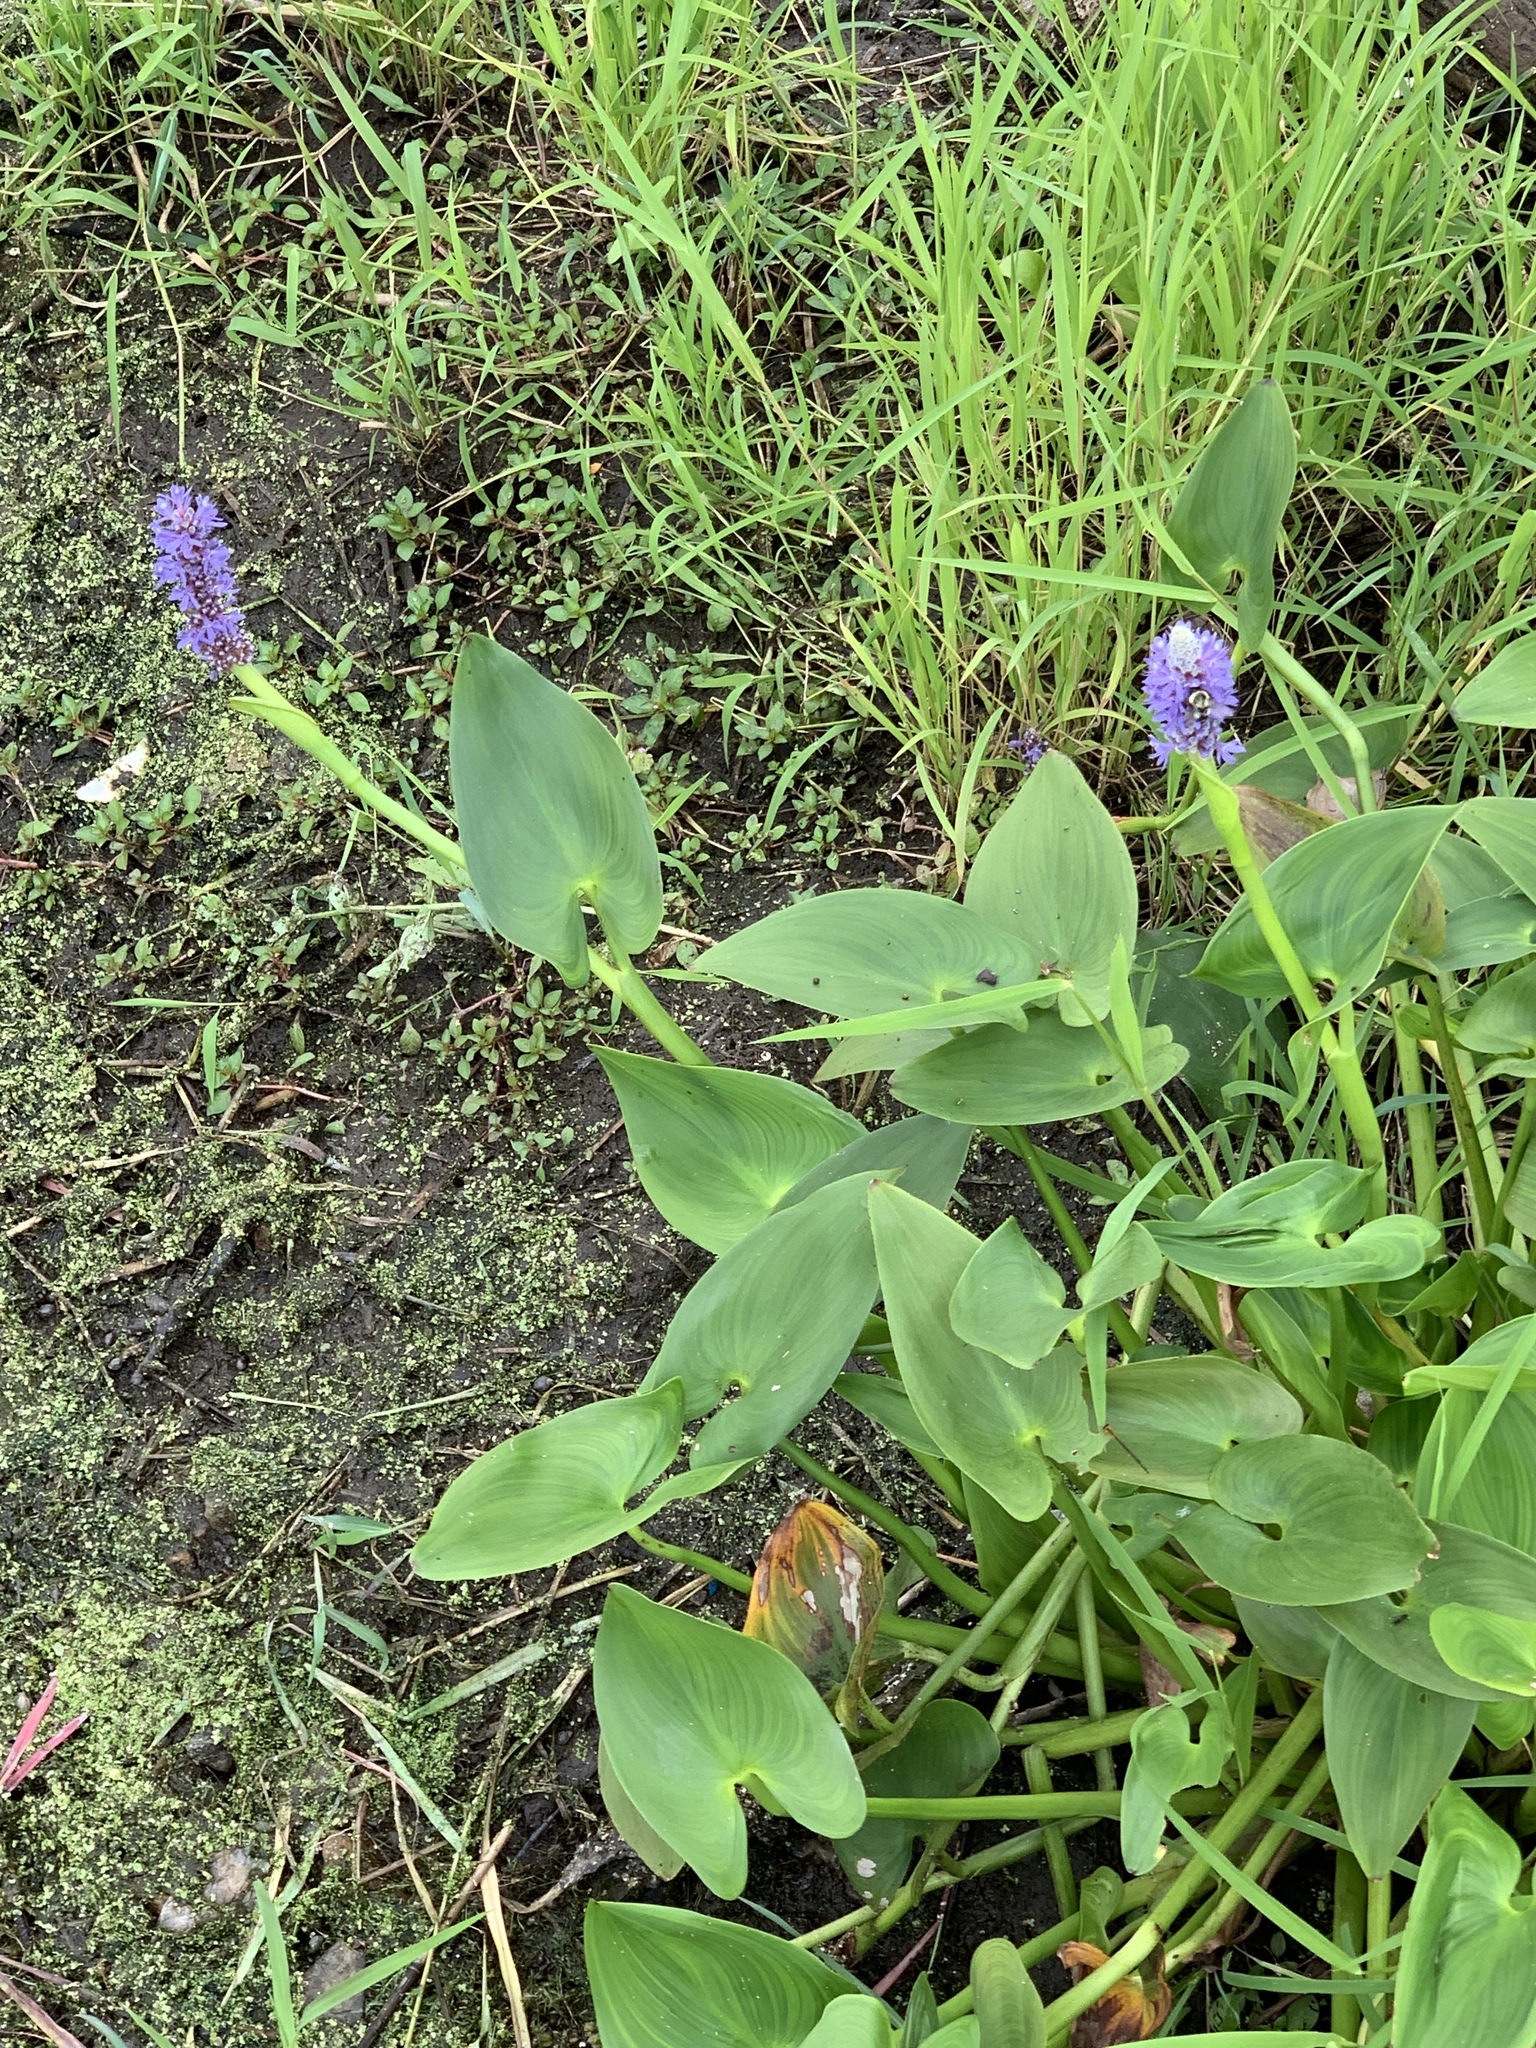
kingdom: Plantae
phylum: Tracheophyta
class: Liliopsida
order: Commelinales
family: Pontederiaceae
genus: Pontederia
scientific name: Pontederia cordata
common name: Pickerelweed
